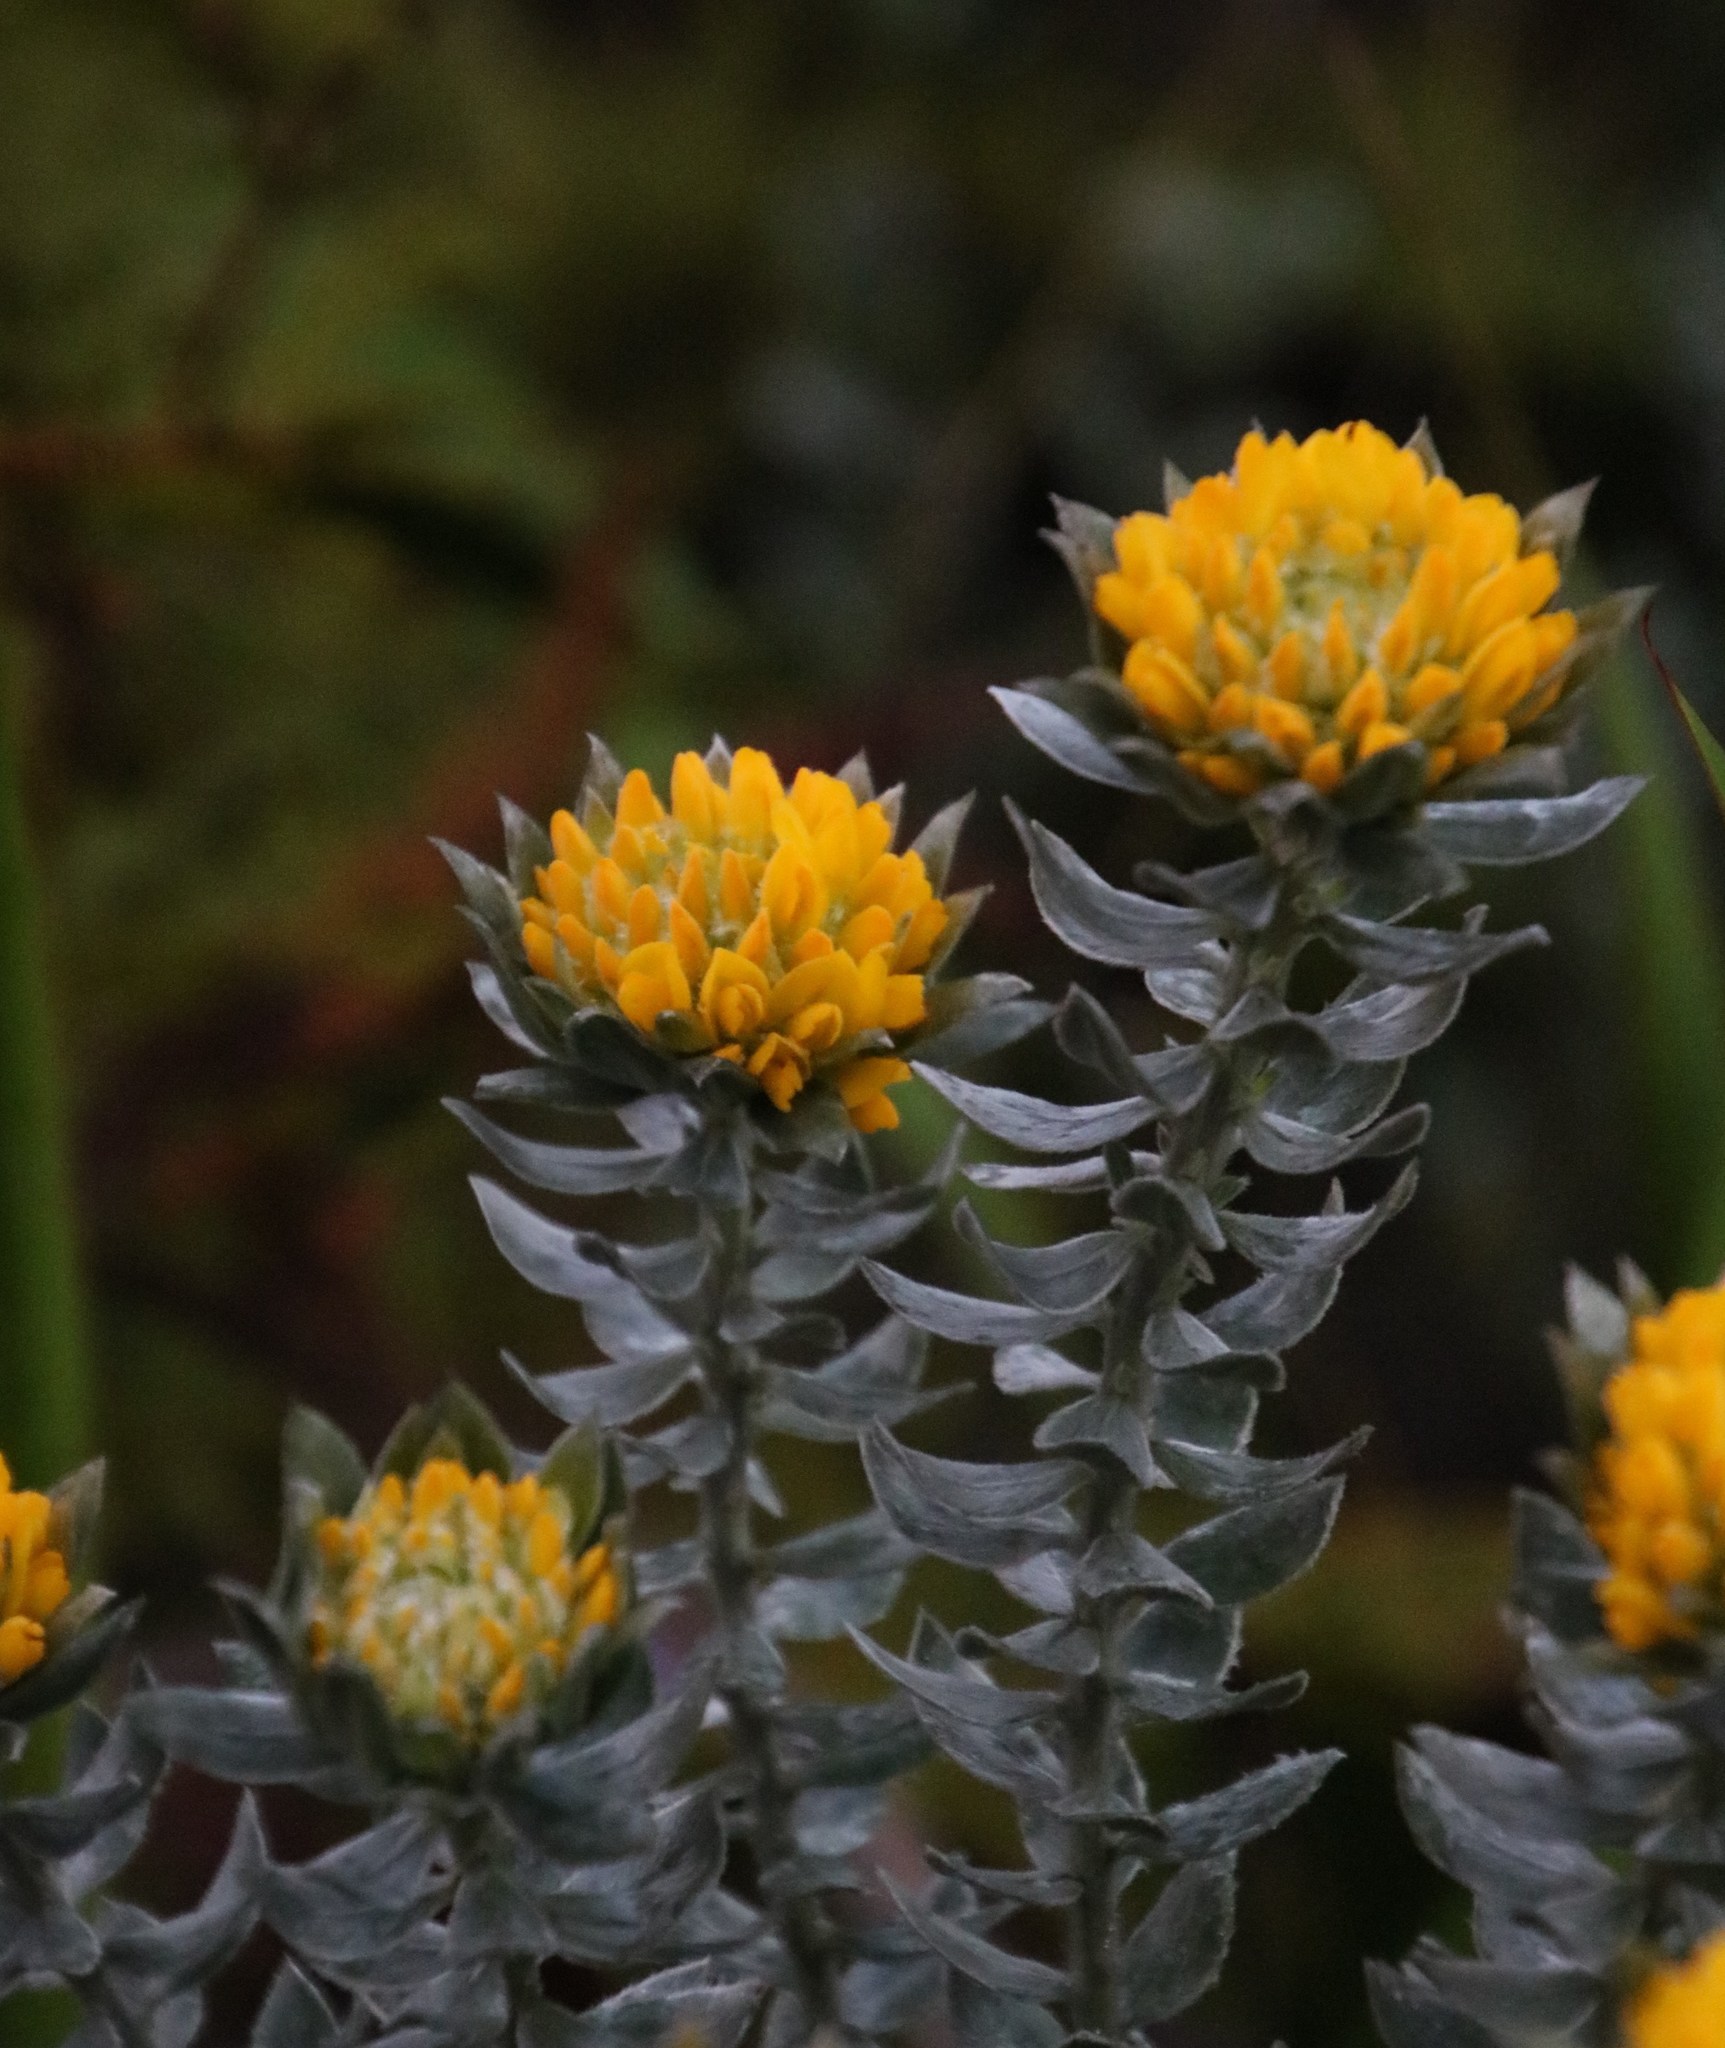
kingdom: Plantae
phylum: Tracheophyta
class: Magnoliopsida
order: Fabales
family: Fabaceae
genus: Xiphotheca
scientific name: Xiphotheca fruticosa
